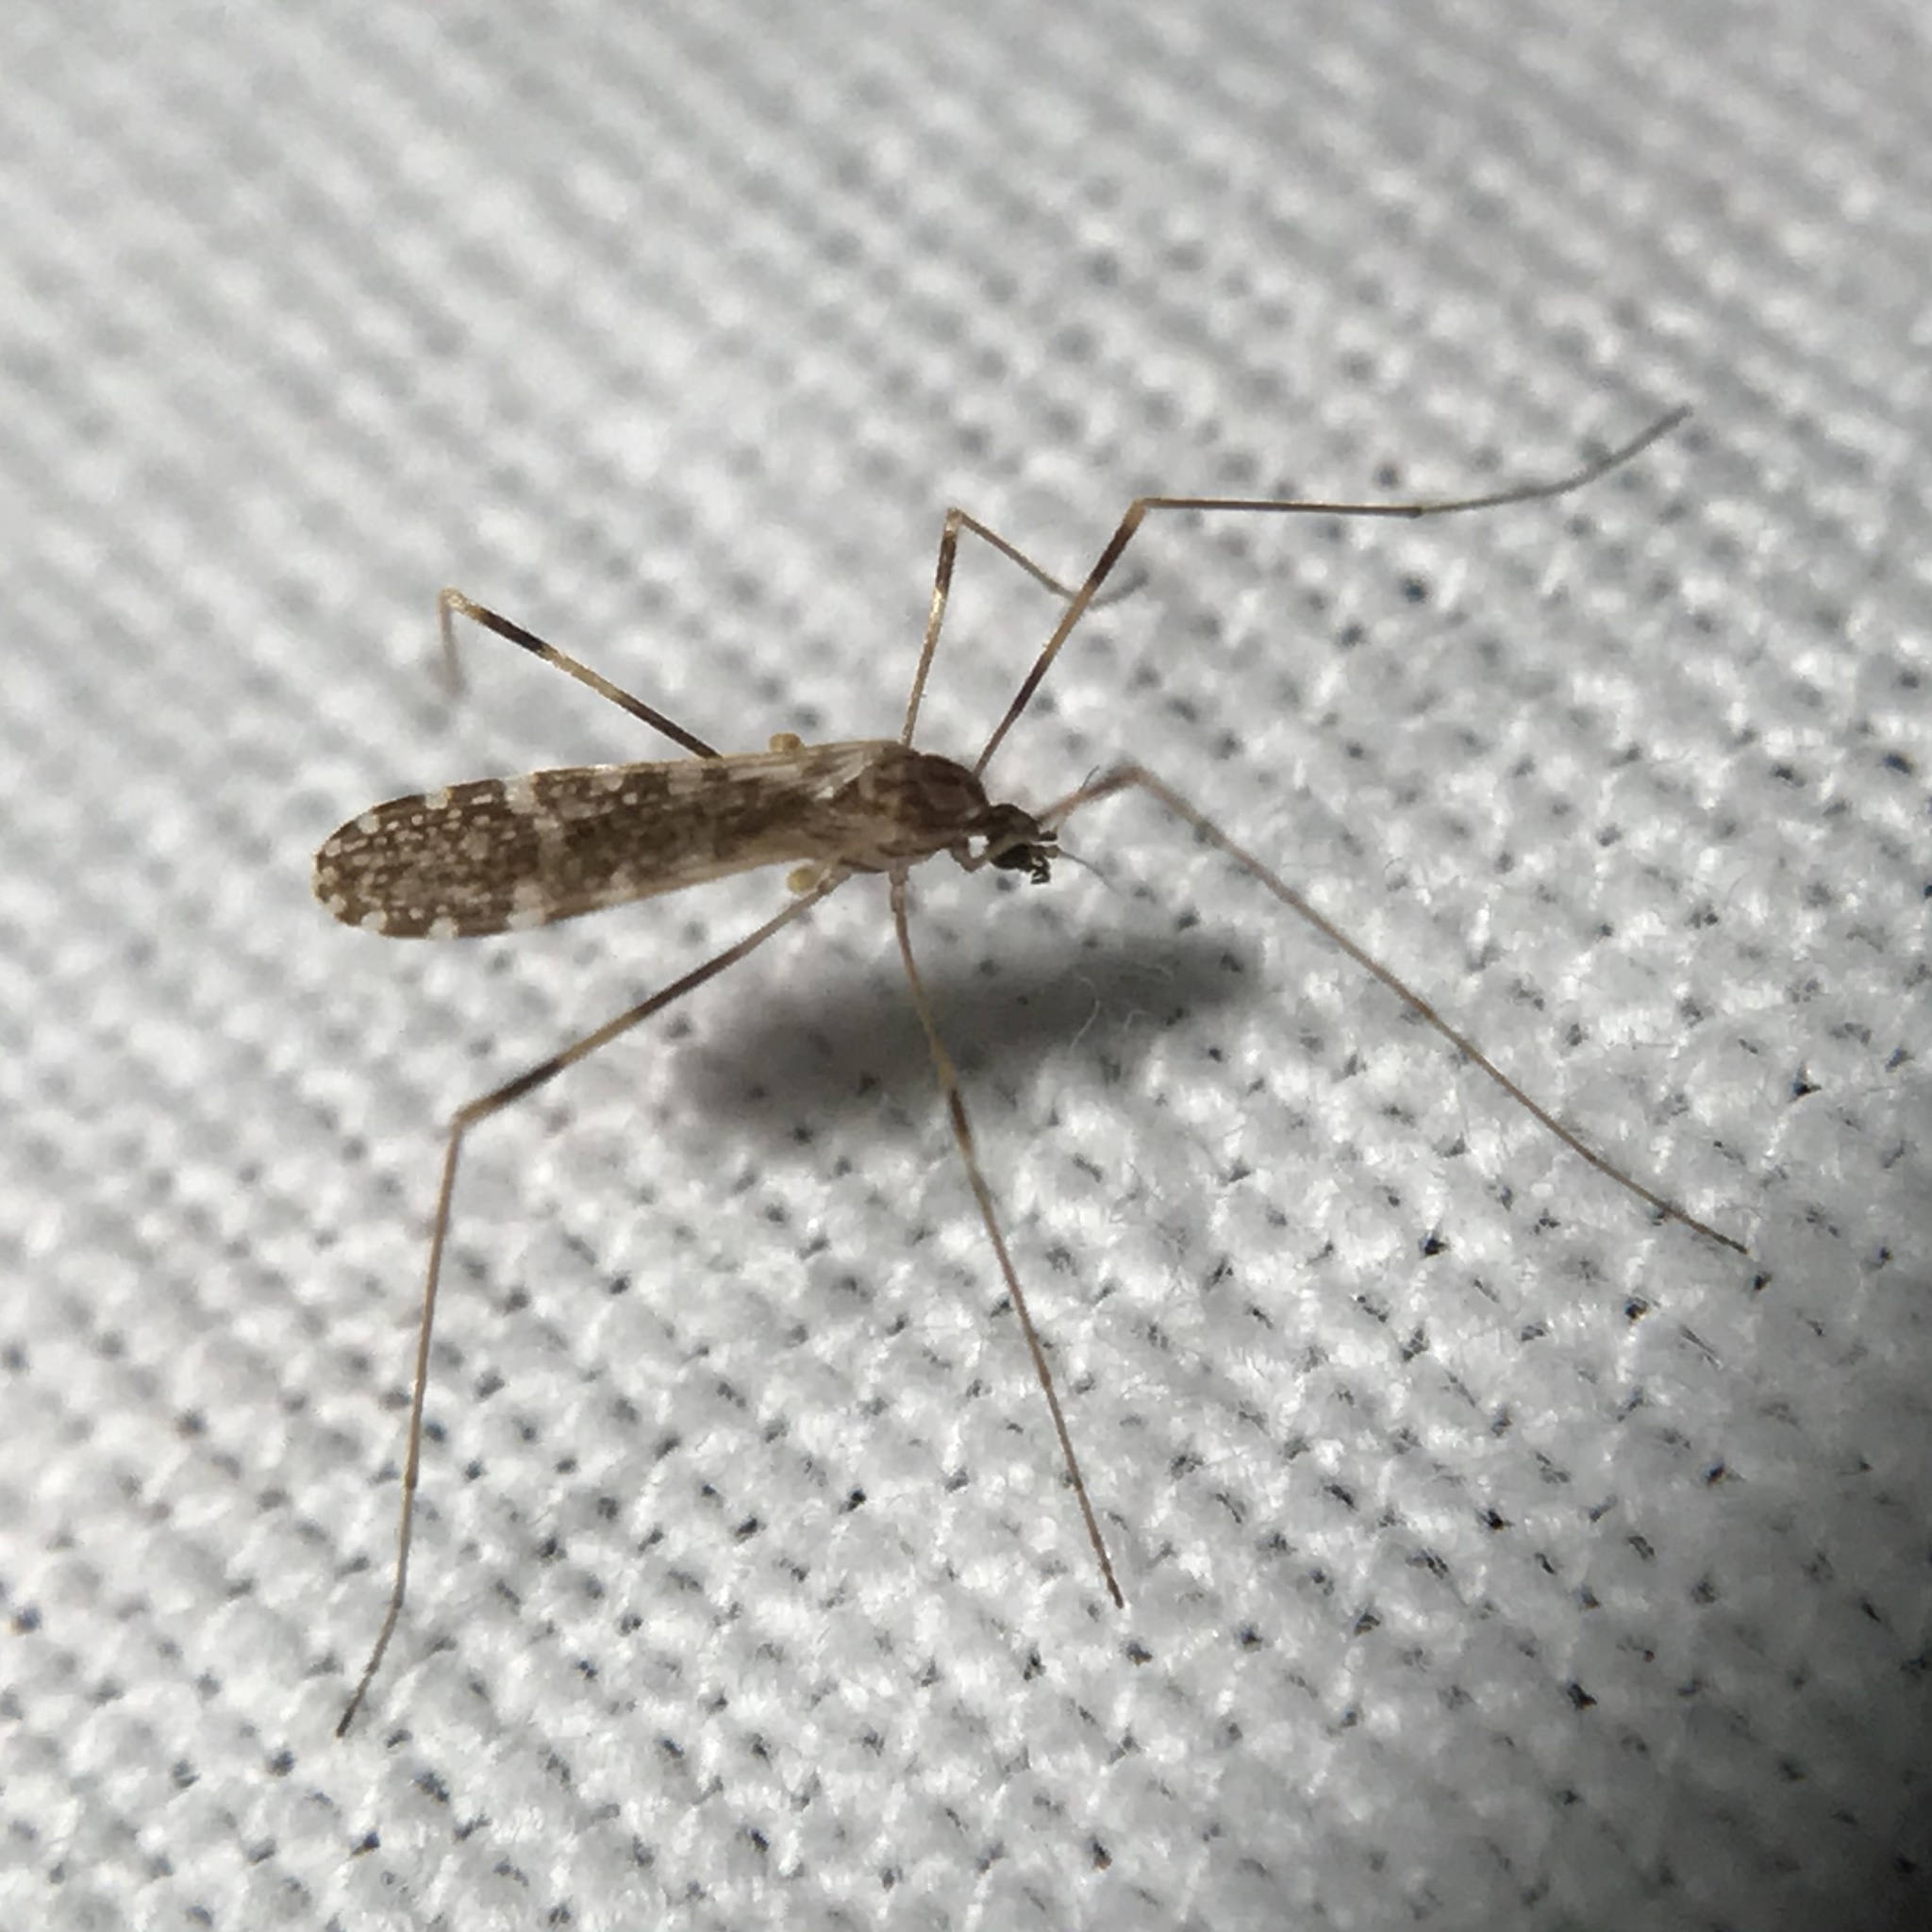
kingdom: Animalia
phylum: Arthropoda
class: Insecta
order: Diptera
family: Limoniidae
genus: Erioptera
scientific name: Erioptera caliptera
